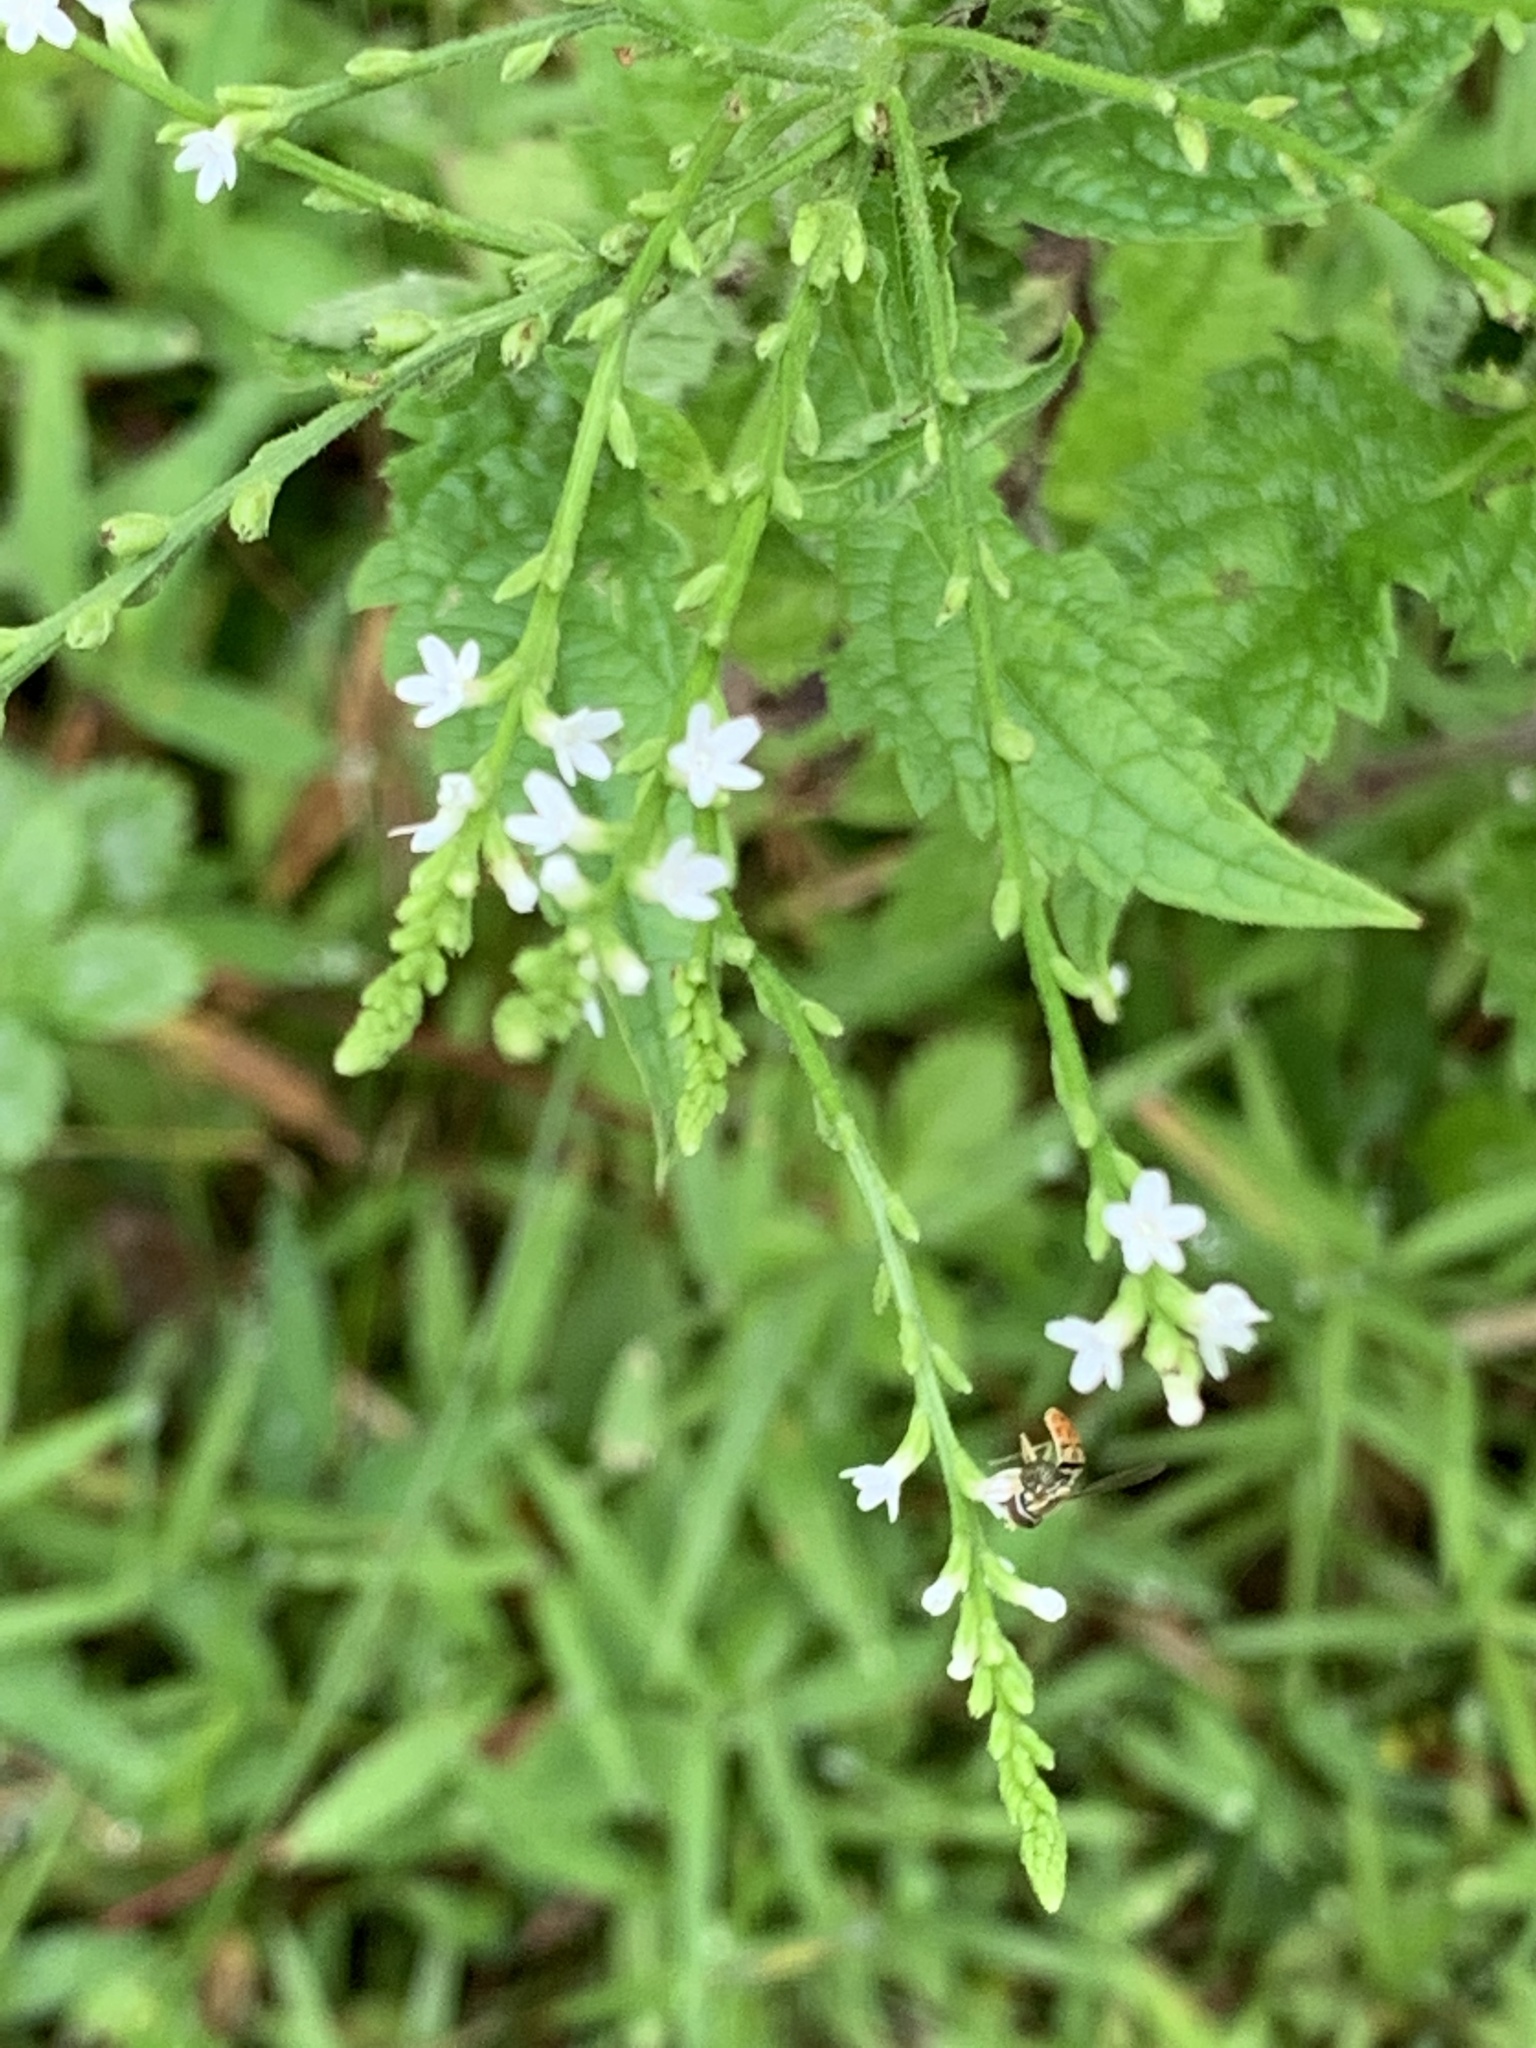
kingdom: Plantae
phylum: Tracheophyta
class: Magnoliopsida
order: Lamiales
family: Verbenaceae
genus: Verbena
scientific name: Verbena urticifolia
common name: Nettle-leaved vervain
